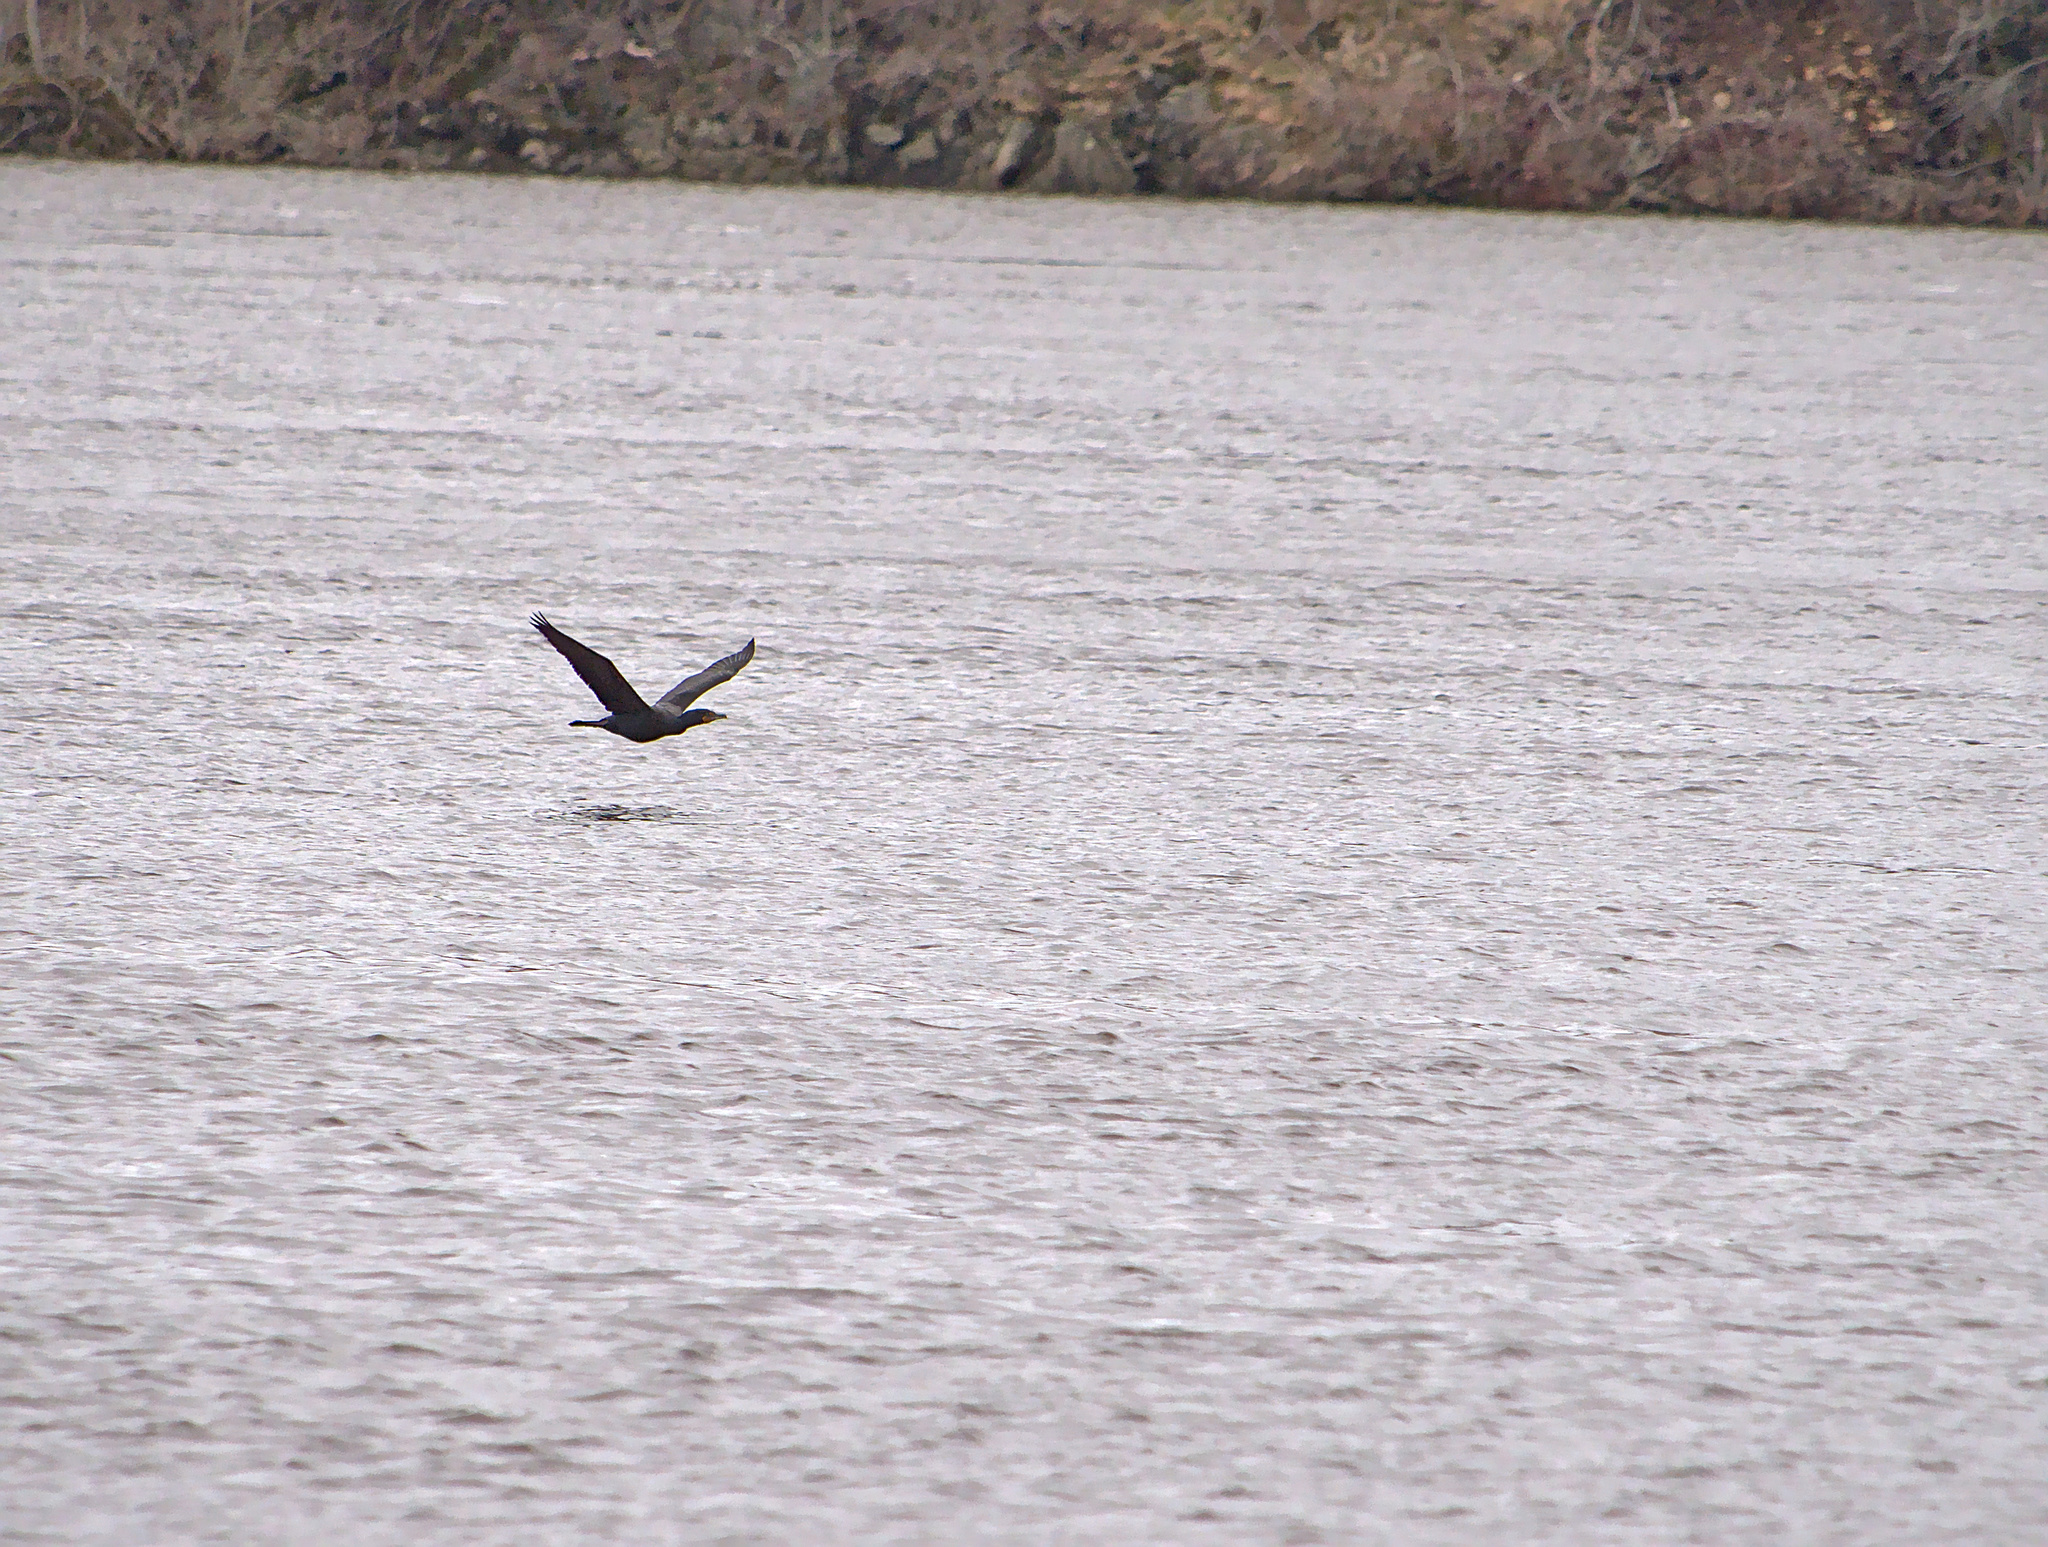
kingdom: Animalia
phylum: Chordata
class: Aves
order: Suliformes
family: Phalacrocoracidae
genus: Phalacrocorax
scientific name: Phalacrocorax auritus
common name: Double-crested cormorant
